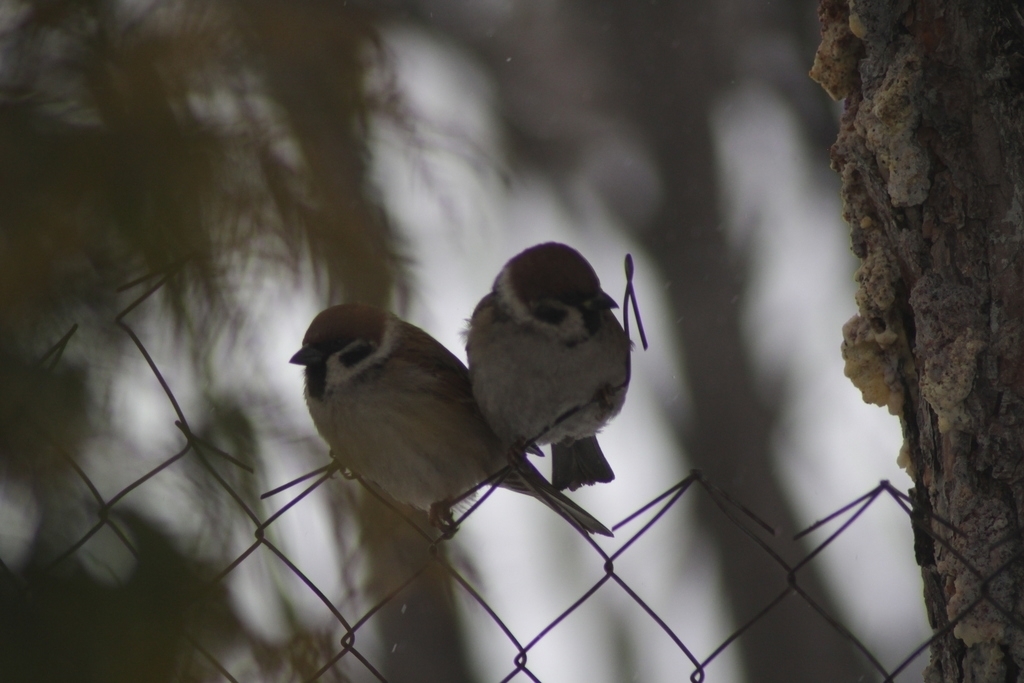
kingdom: Animalia
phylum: Chordata
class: Aves
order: Passeriformes
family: Passeridae
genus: Passer
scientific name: Passer montanus
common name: Eurasian tree sparrow
